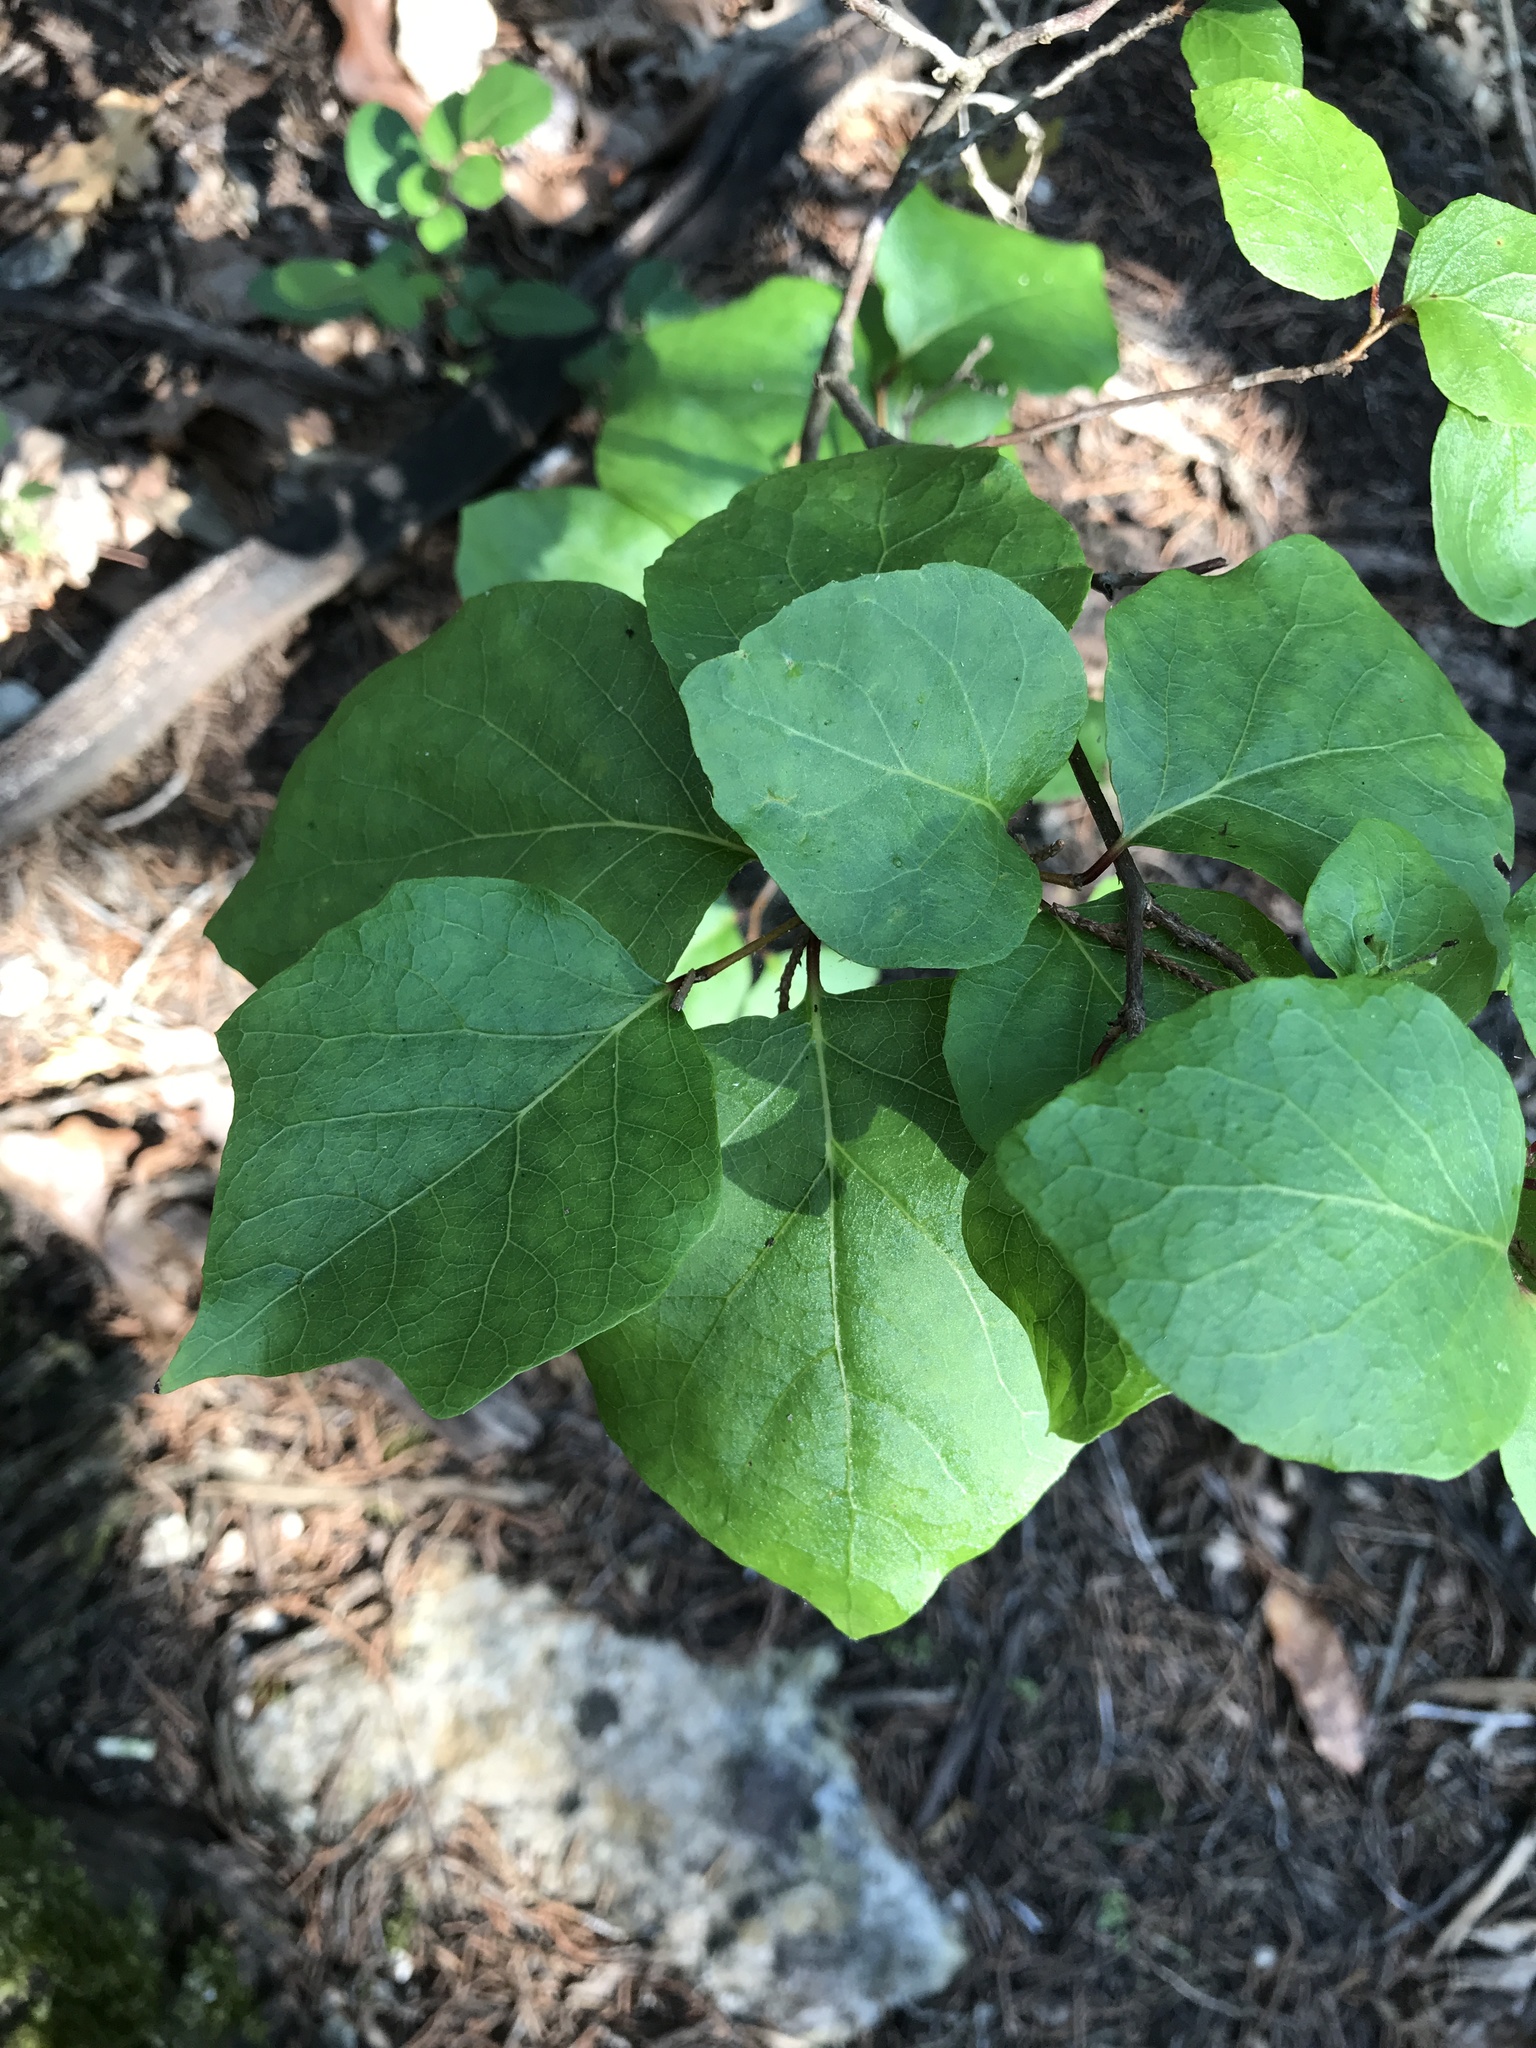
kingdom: Plantae
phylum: Tracheophyta
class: Magnoliopsida
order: Ericales
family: Styracaceae
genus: Styrax
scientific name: Styrax platanifolius
